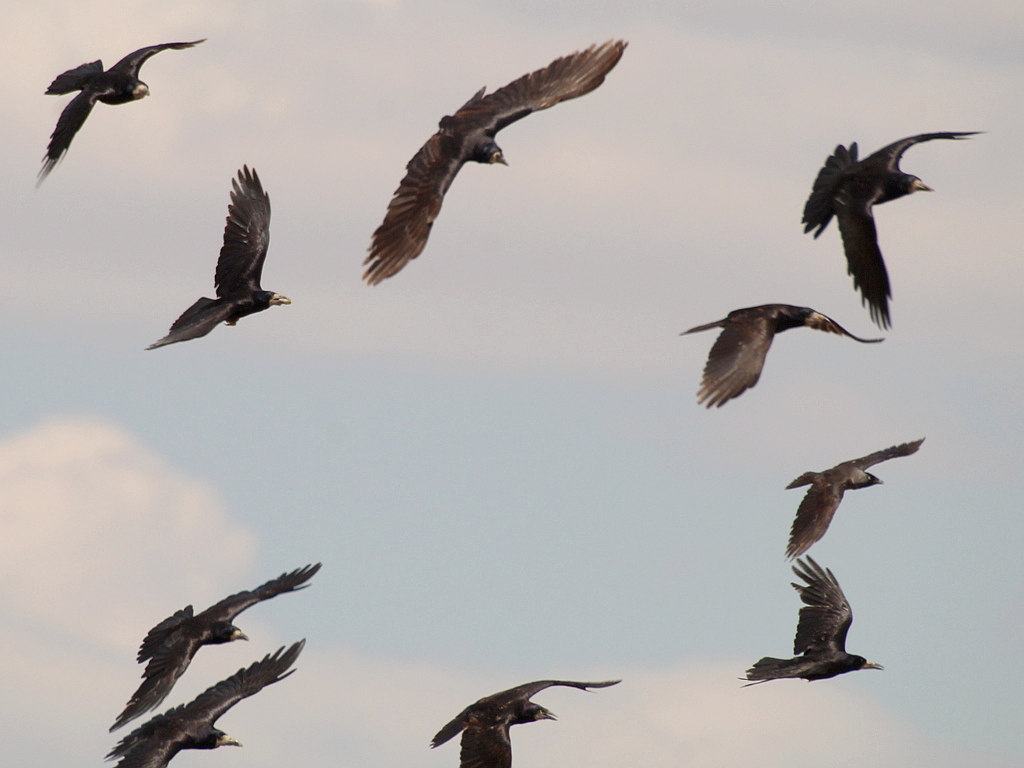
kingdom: Animalia
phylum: Chordata
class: Aves
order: Passeriformes
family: Corvidae
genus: Corvus
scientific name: Corvus frugilegus
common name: Rook
